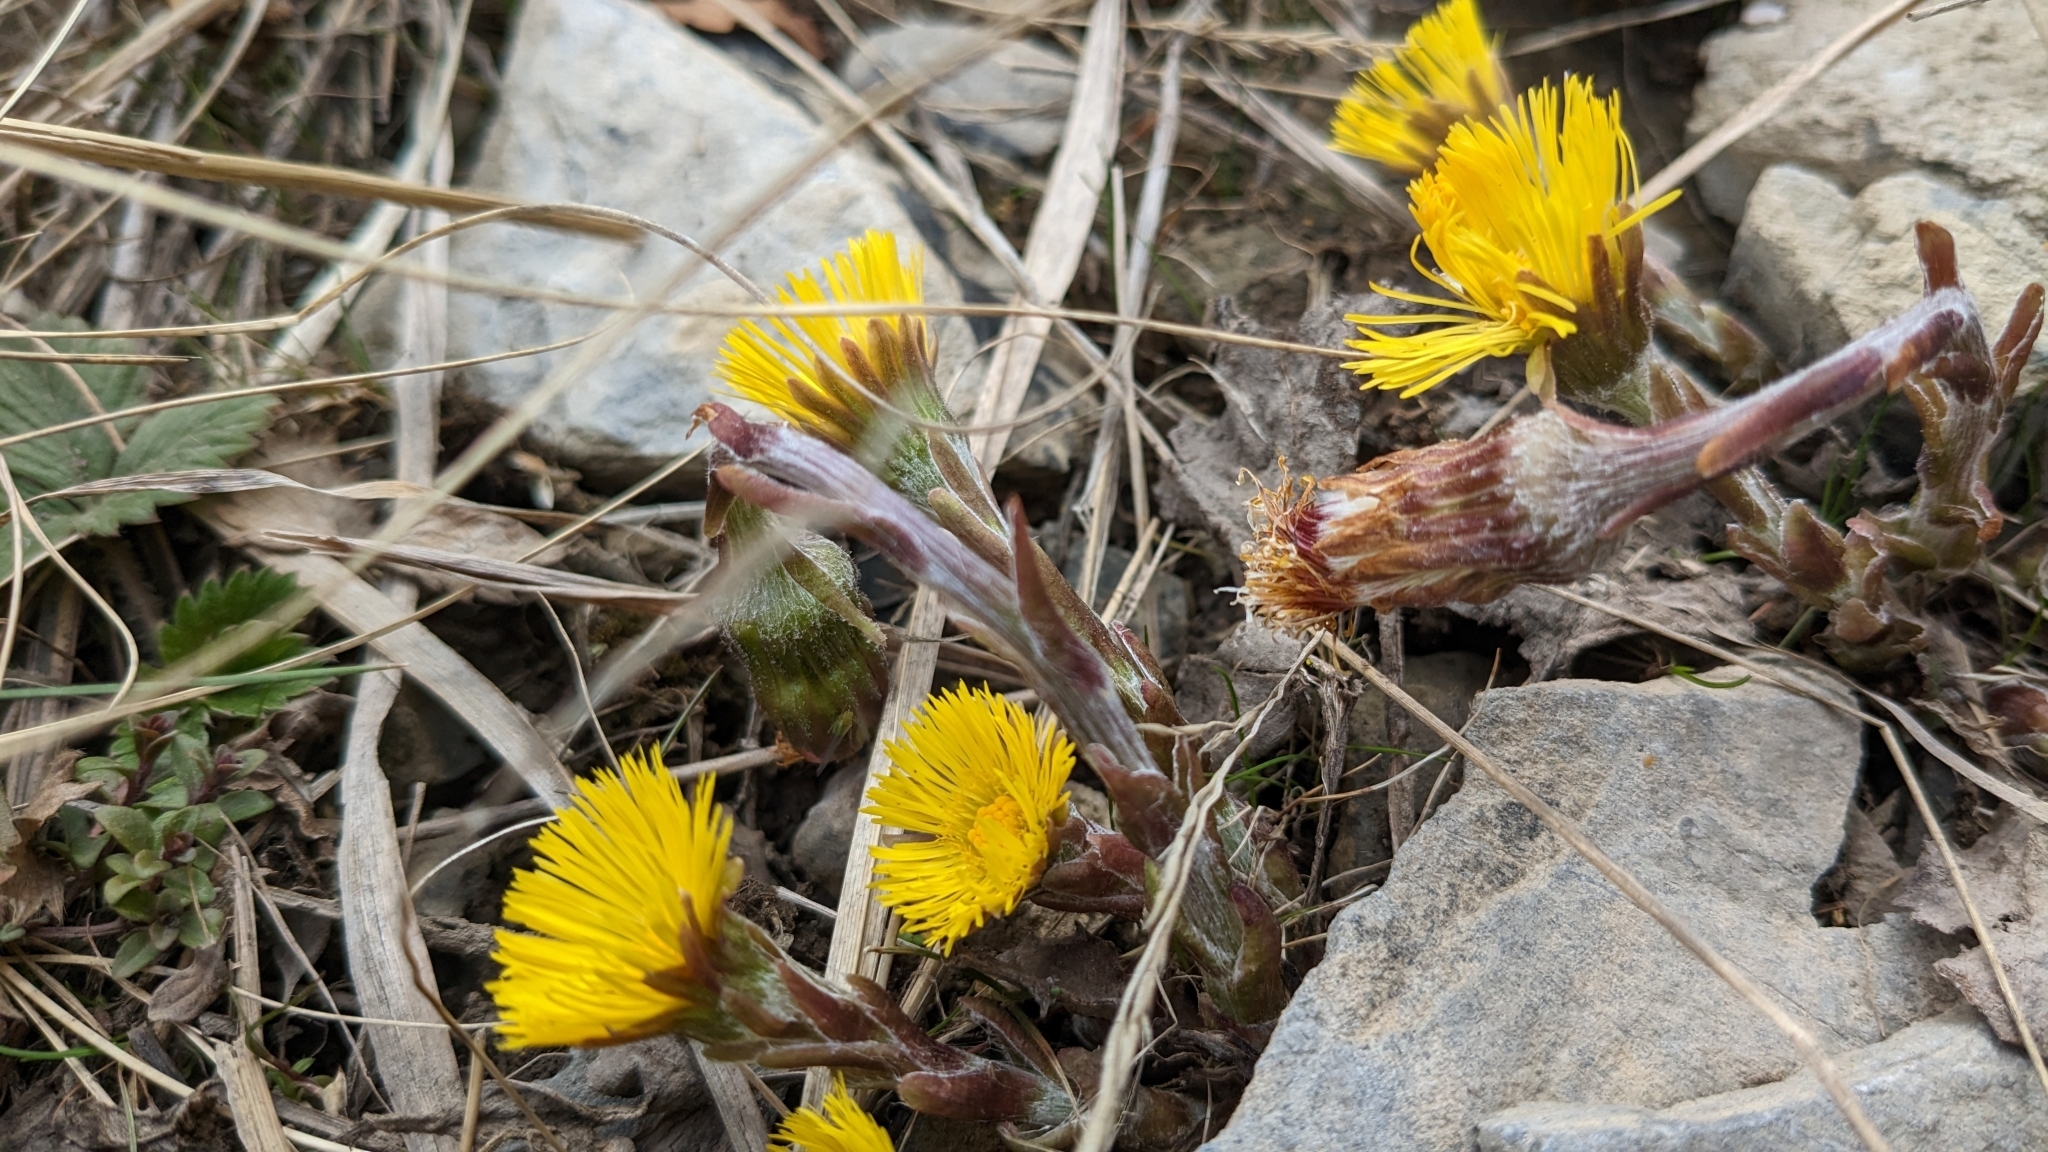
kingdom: Plantae
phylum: Tracheophyta
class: Magnoliopsida
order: Asterales
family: Asteraceae
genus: Tussilago
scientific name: Tussilago farfara
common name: Coltsfoot
